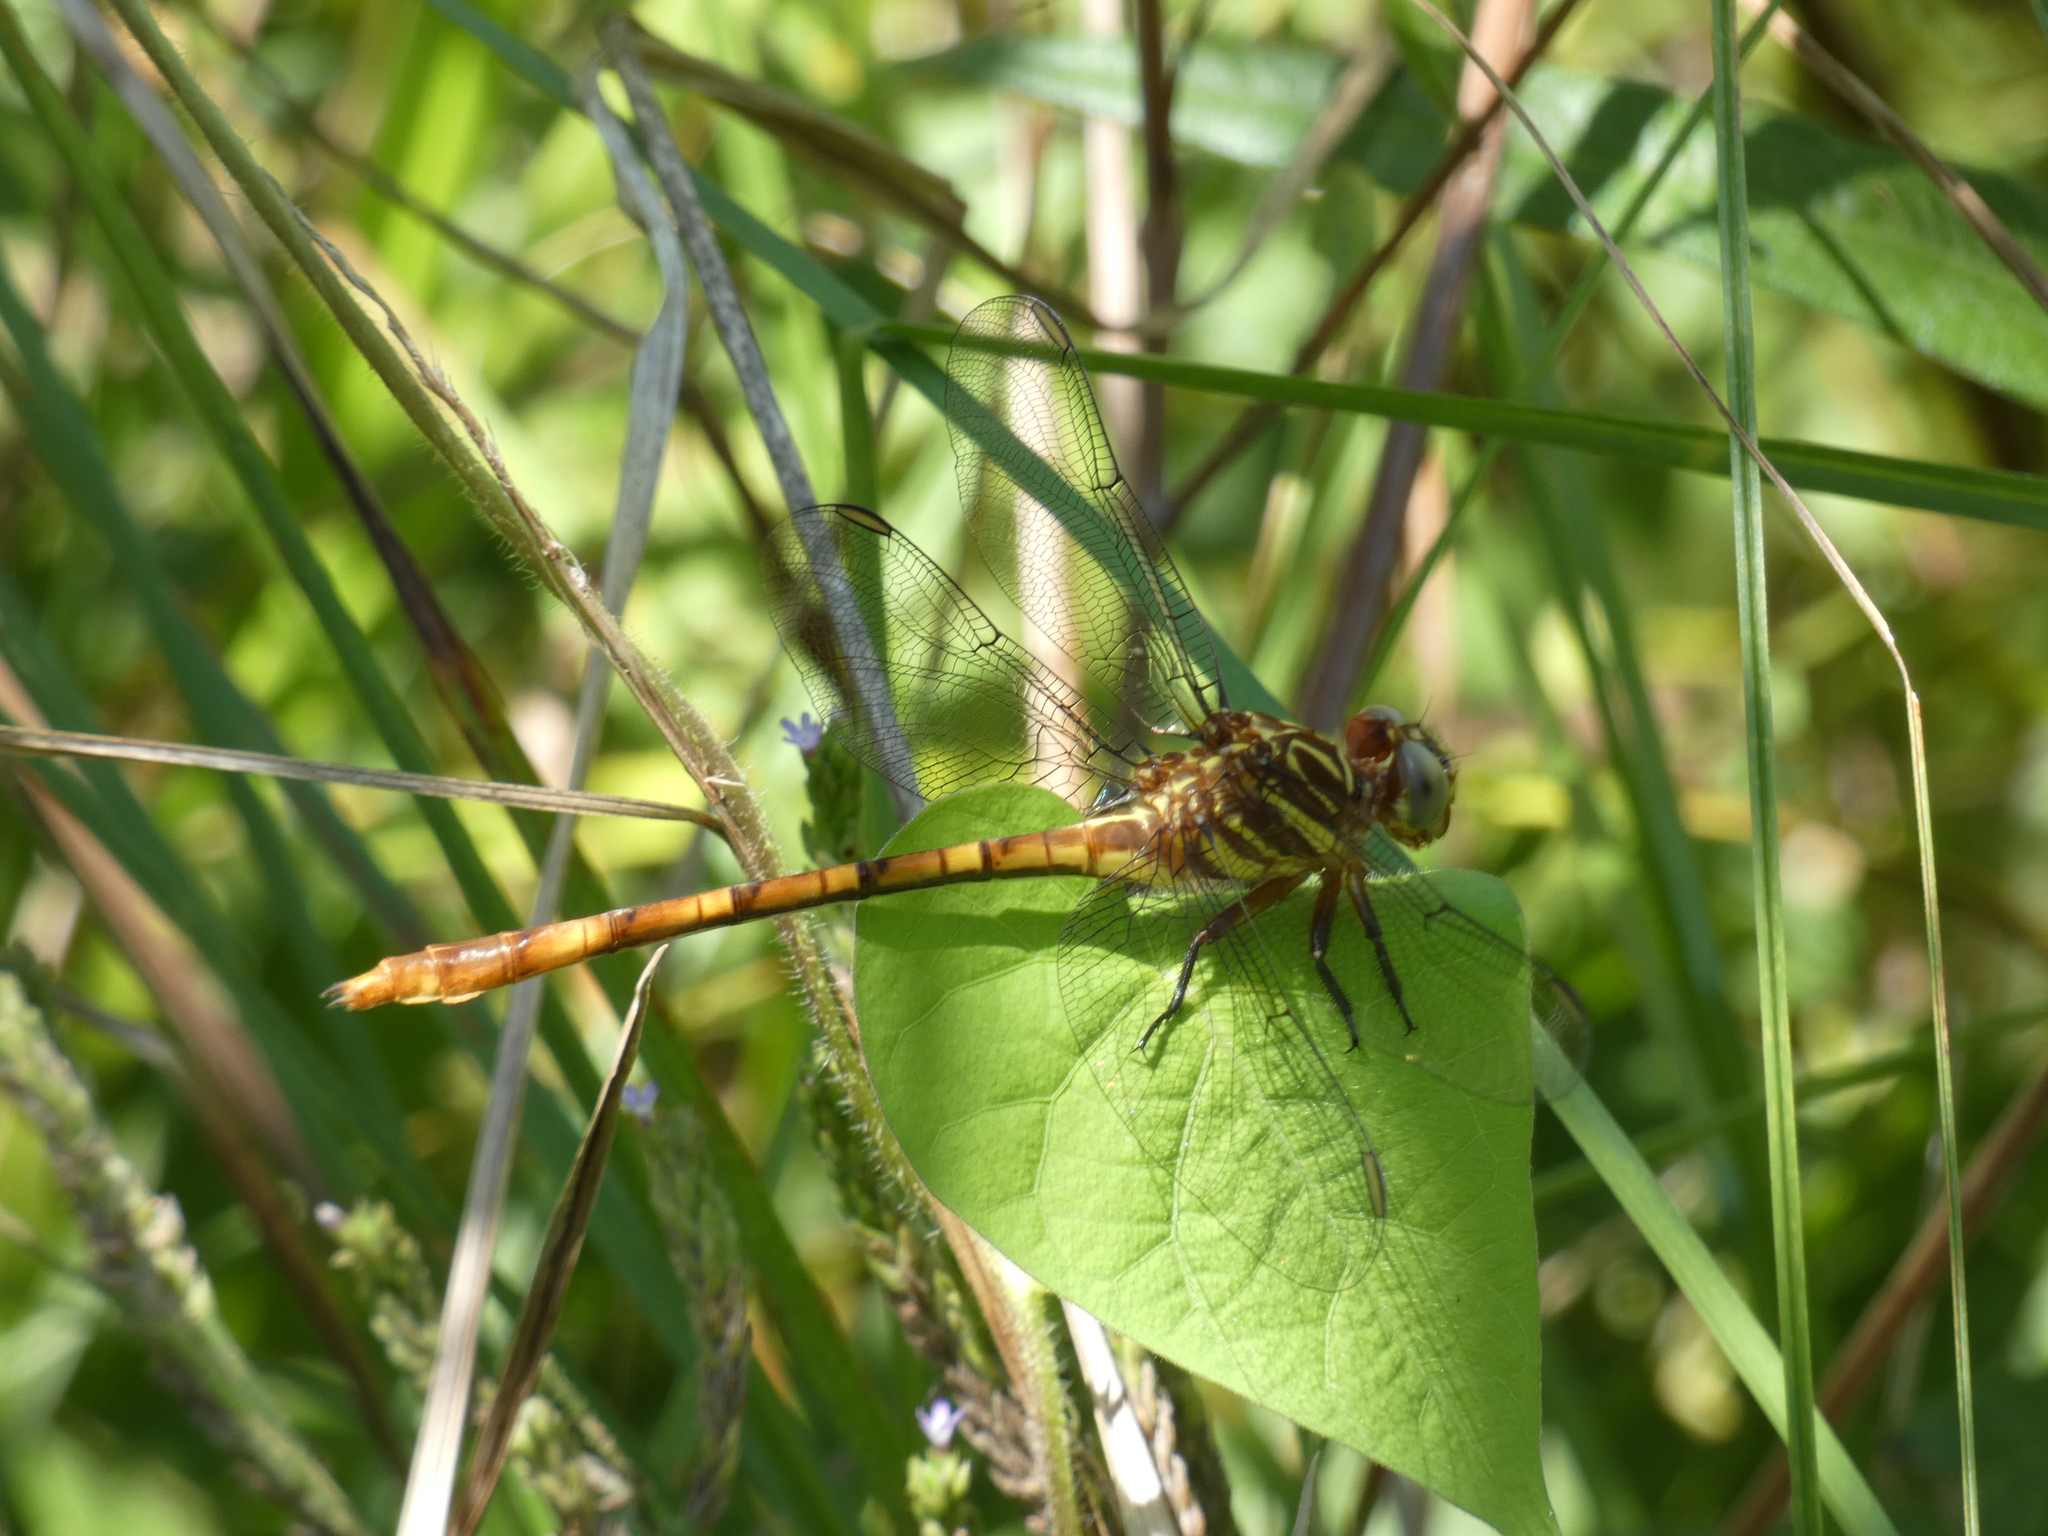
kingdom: Animalia
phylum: Arthropoda
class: Insecta
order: Odonata
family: Gomphidae
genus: Aphylla
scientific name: Aphylla angustifolia
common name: Broad-striped forceptail
